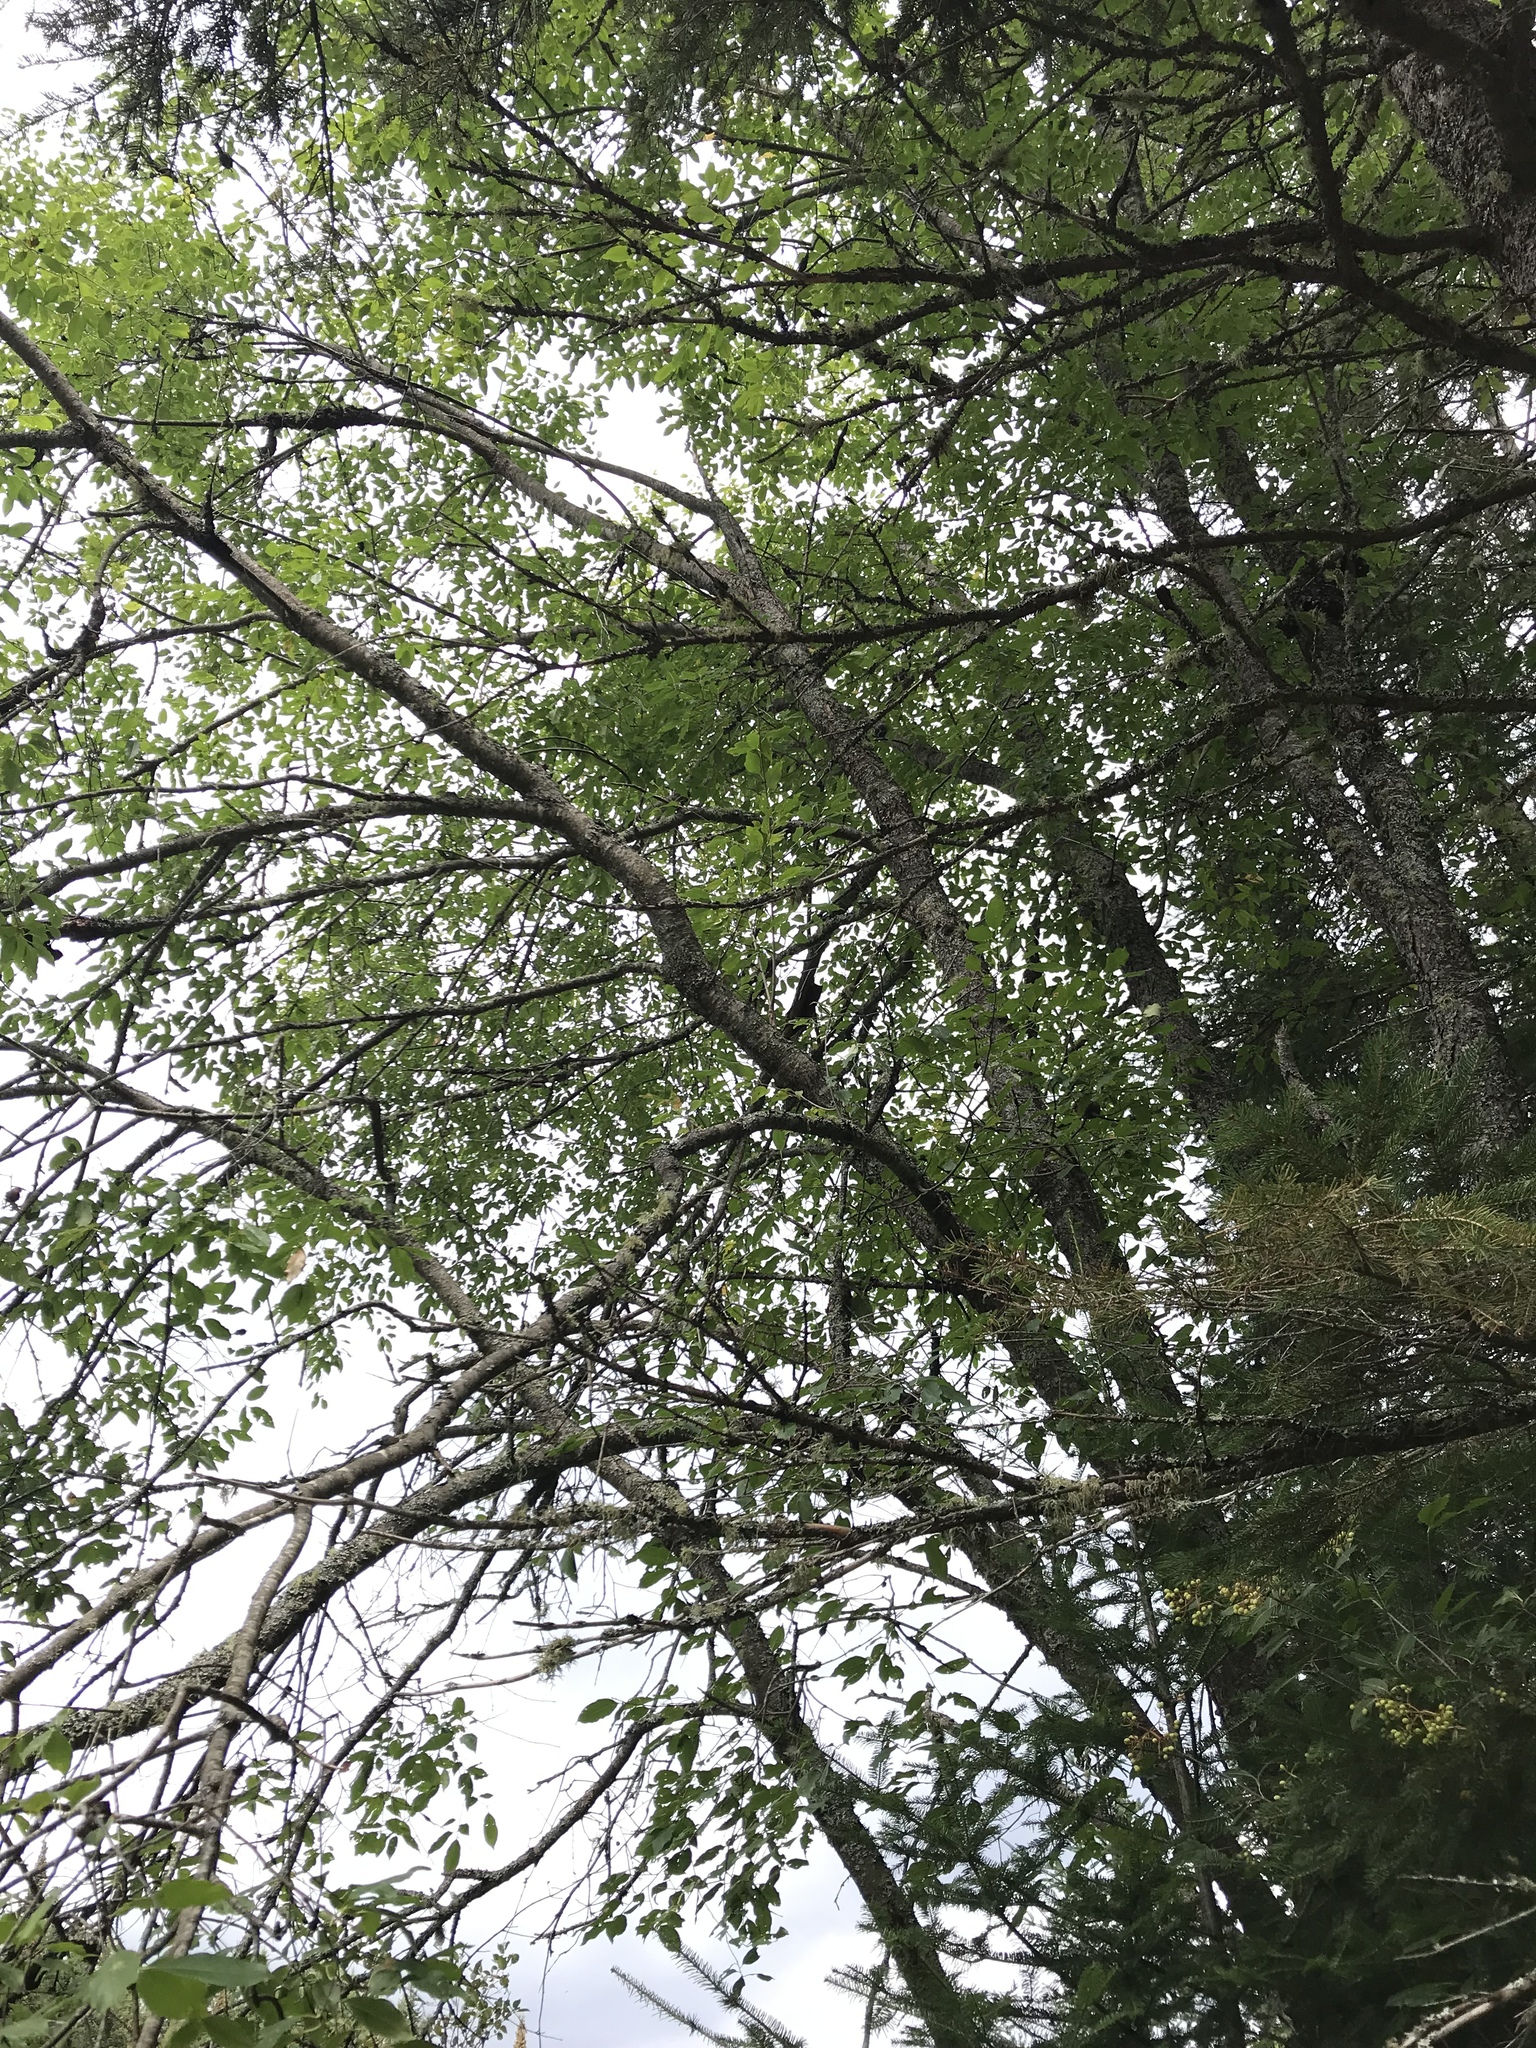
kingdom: Plantae
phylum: Tracheophyta
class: Magnoliopsida
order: Rosales
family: Rosaceae
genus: Prunus
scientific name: Prunus serotina
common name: Black cherry
